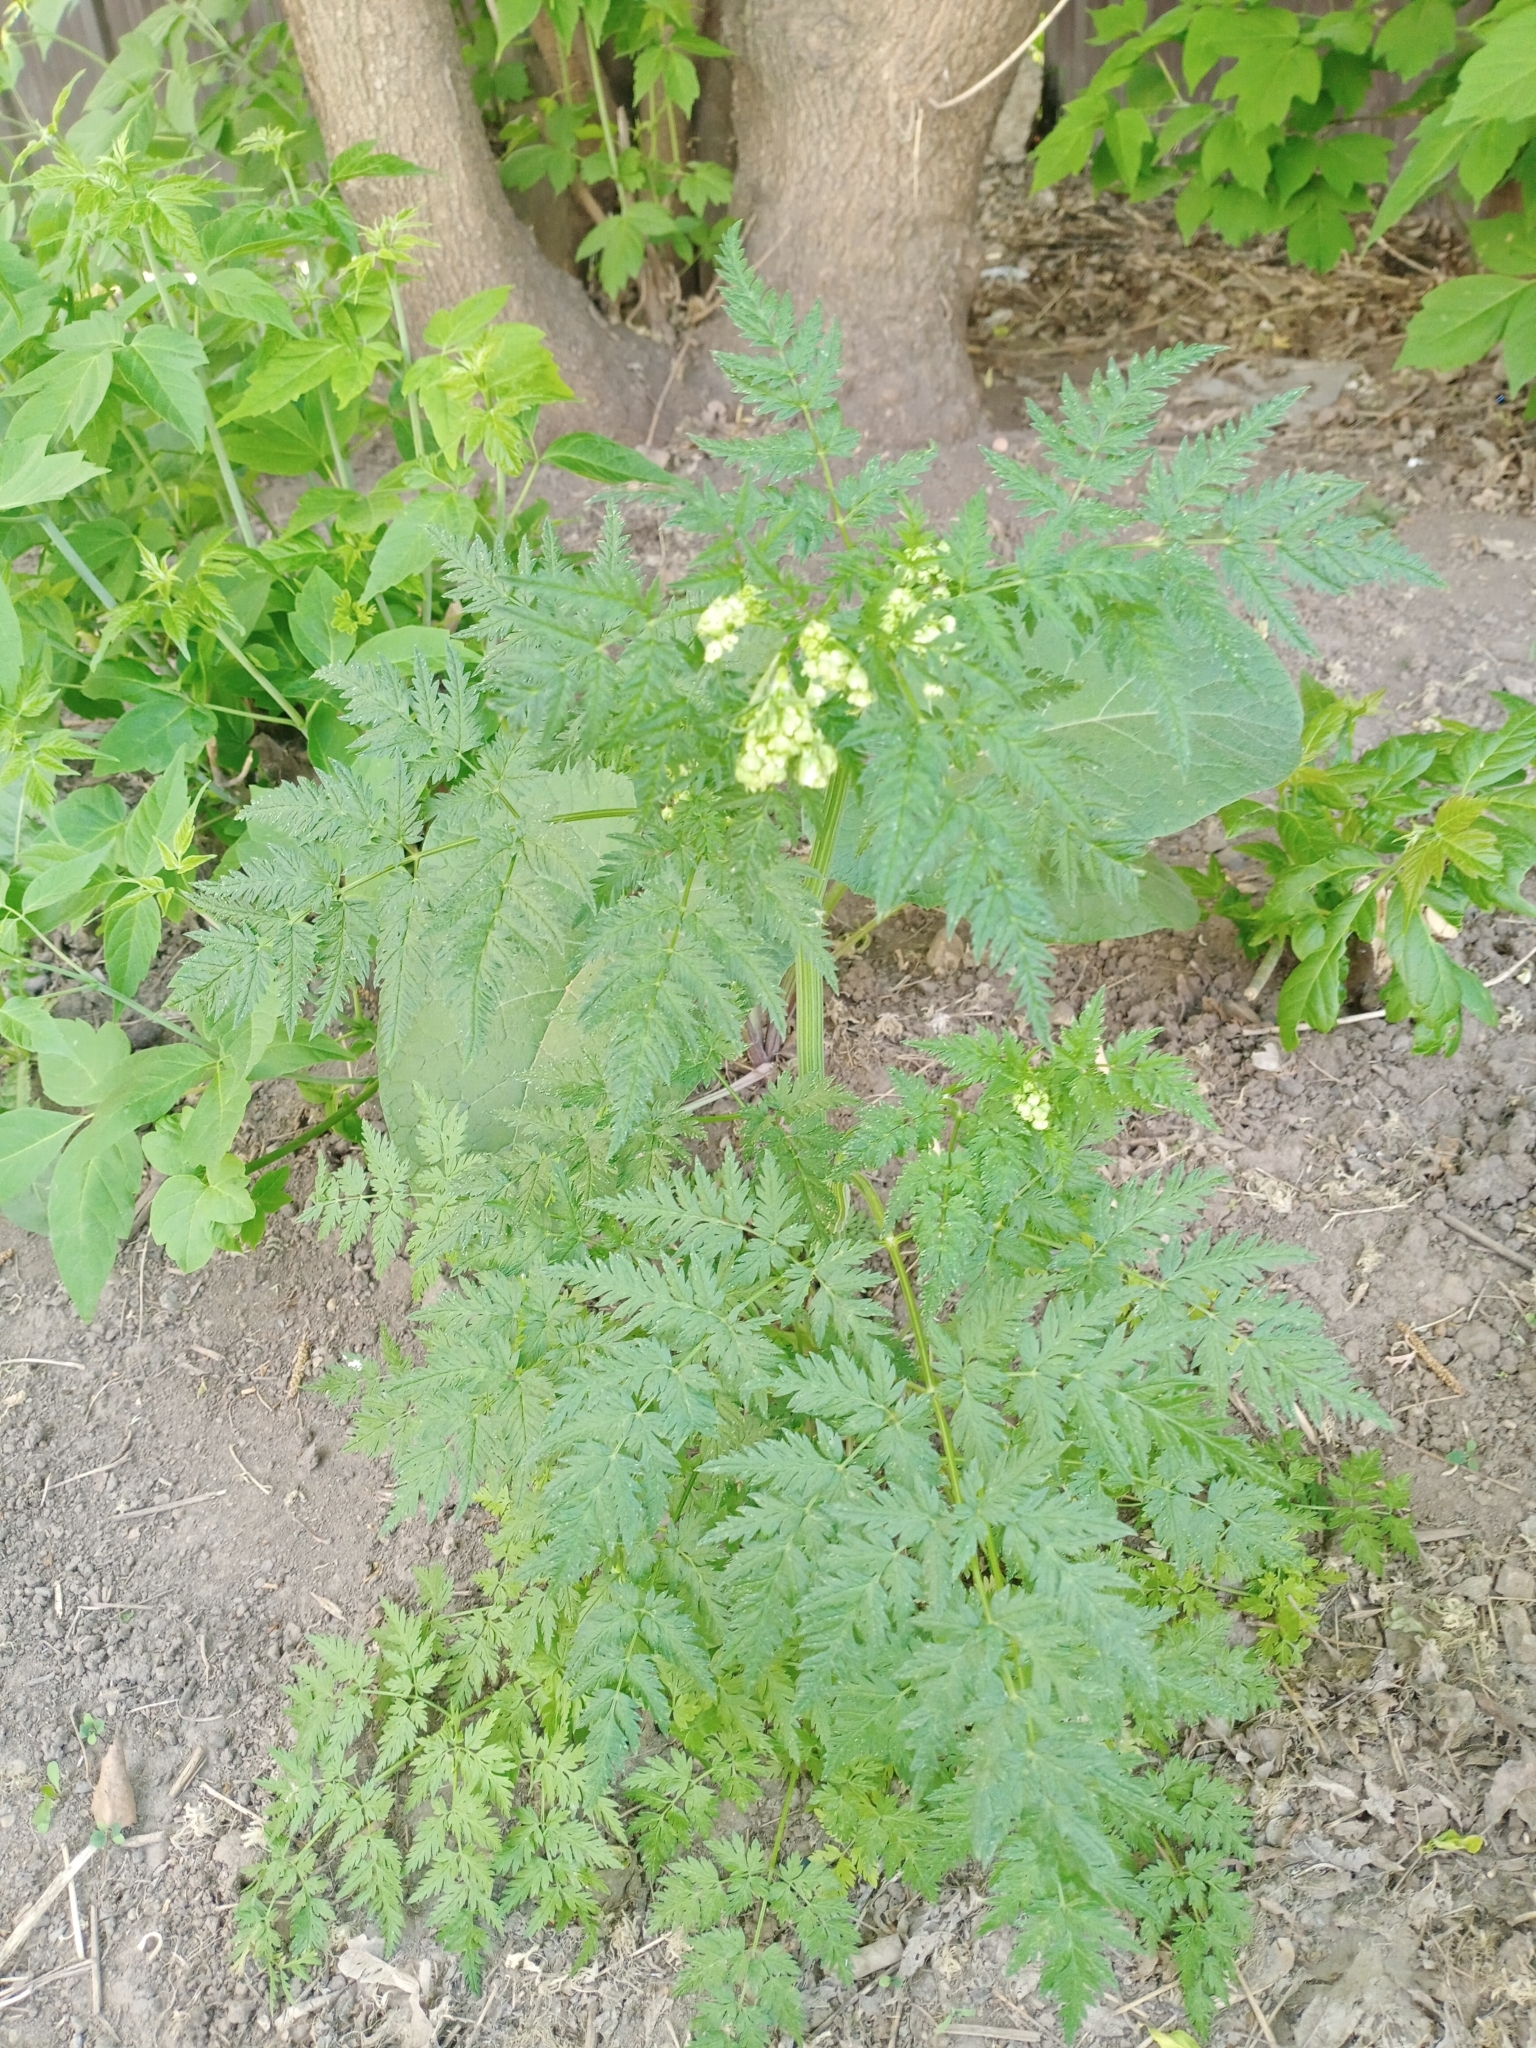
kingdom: Plantae
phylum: Tracheophyta
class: Magnoliopsida
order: Apiales
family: Apiaceae
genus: Anthriscus
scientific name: Anthriscus sylvestris
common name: Cow parsley
